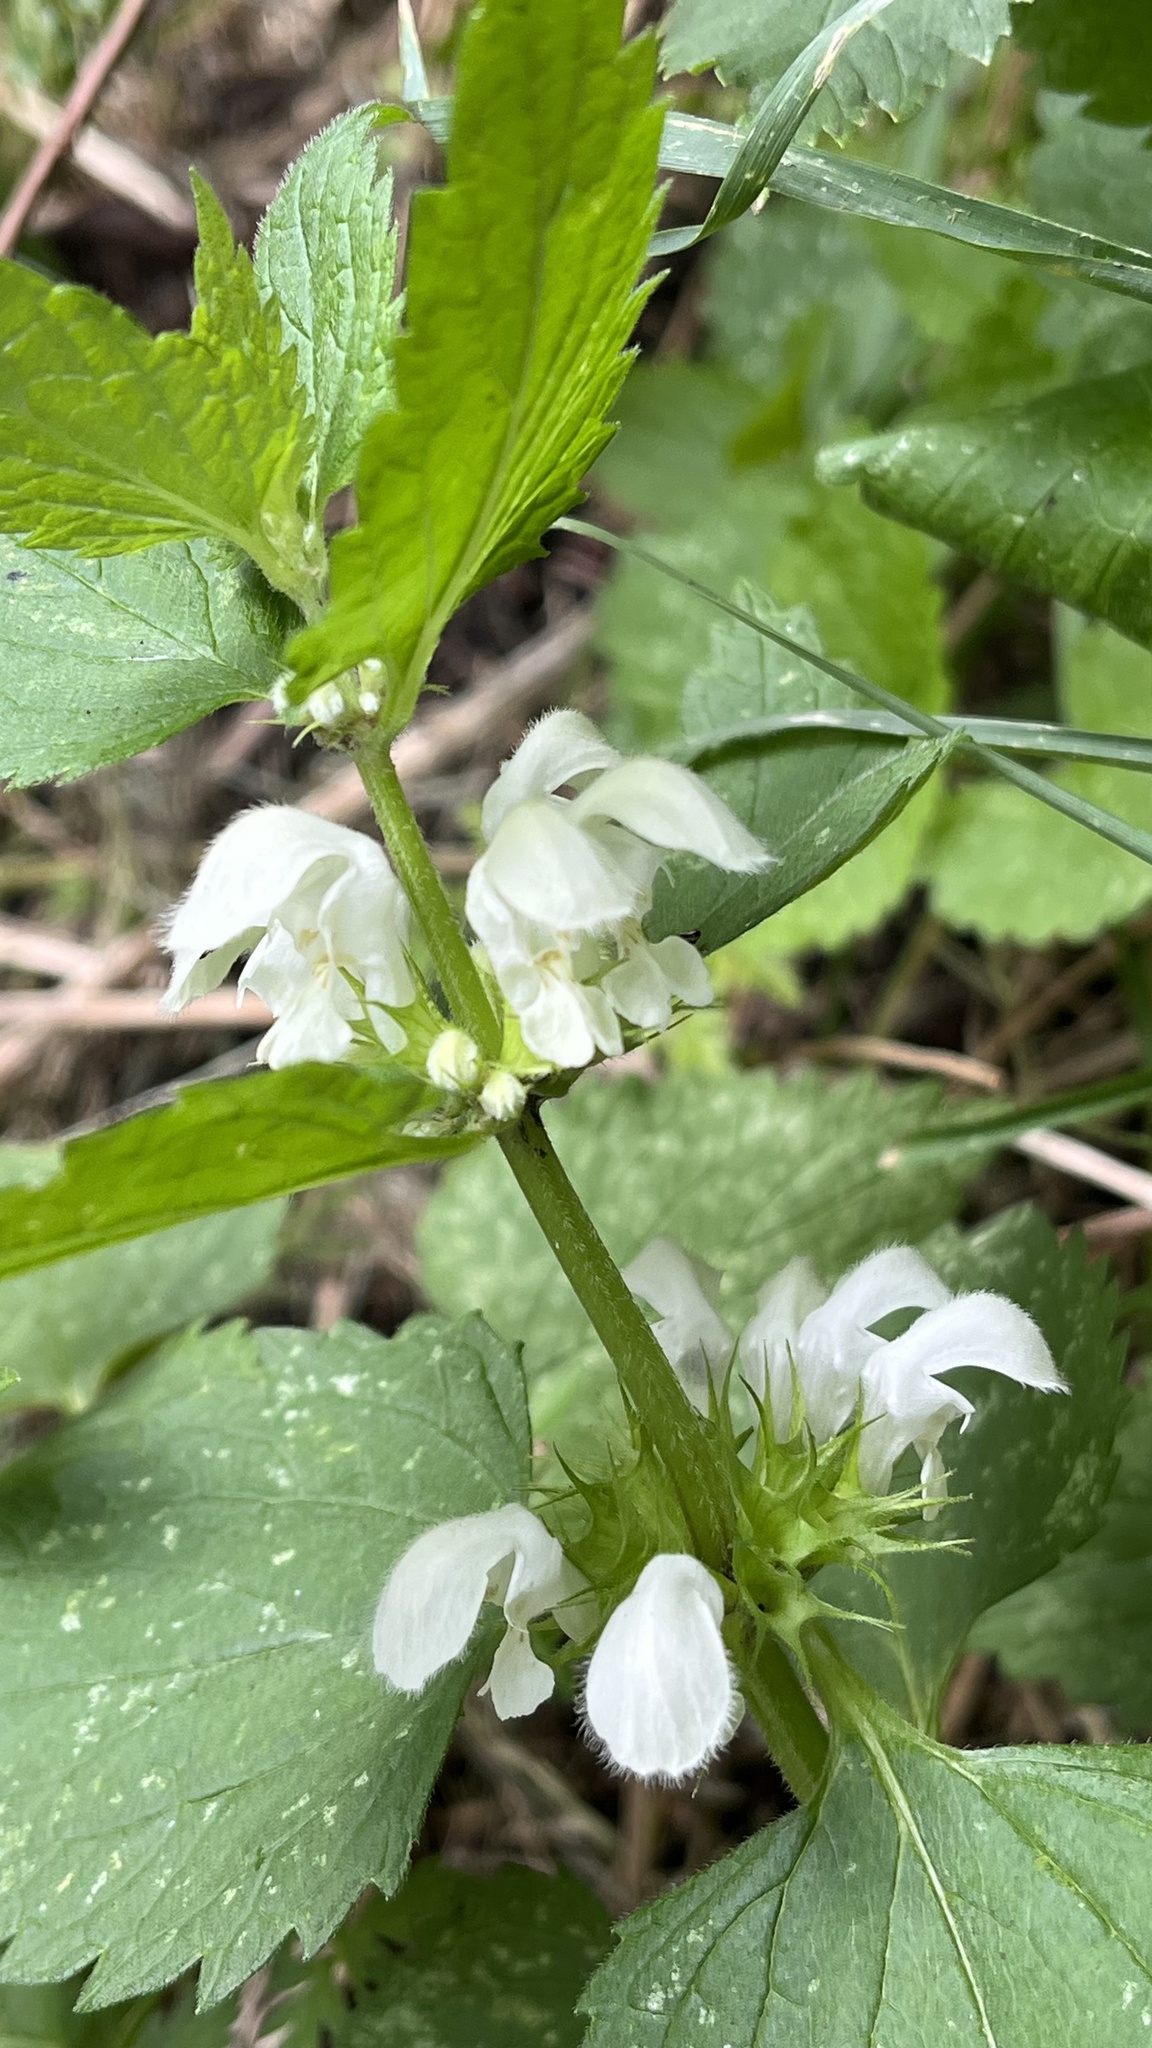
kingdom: Plantae
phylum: Tracheophyta
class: Magnoliopsida
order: Lamiales
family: Lamiaceae
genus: Lamium
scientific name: Lamium album
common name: White dead-nettle
